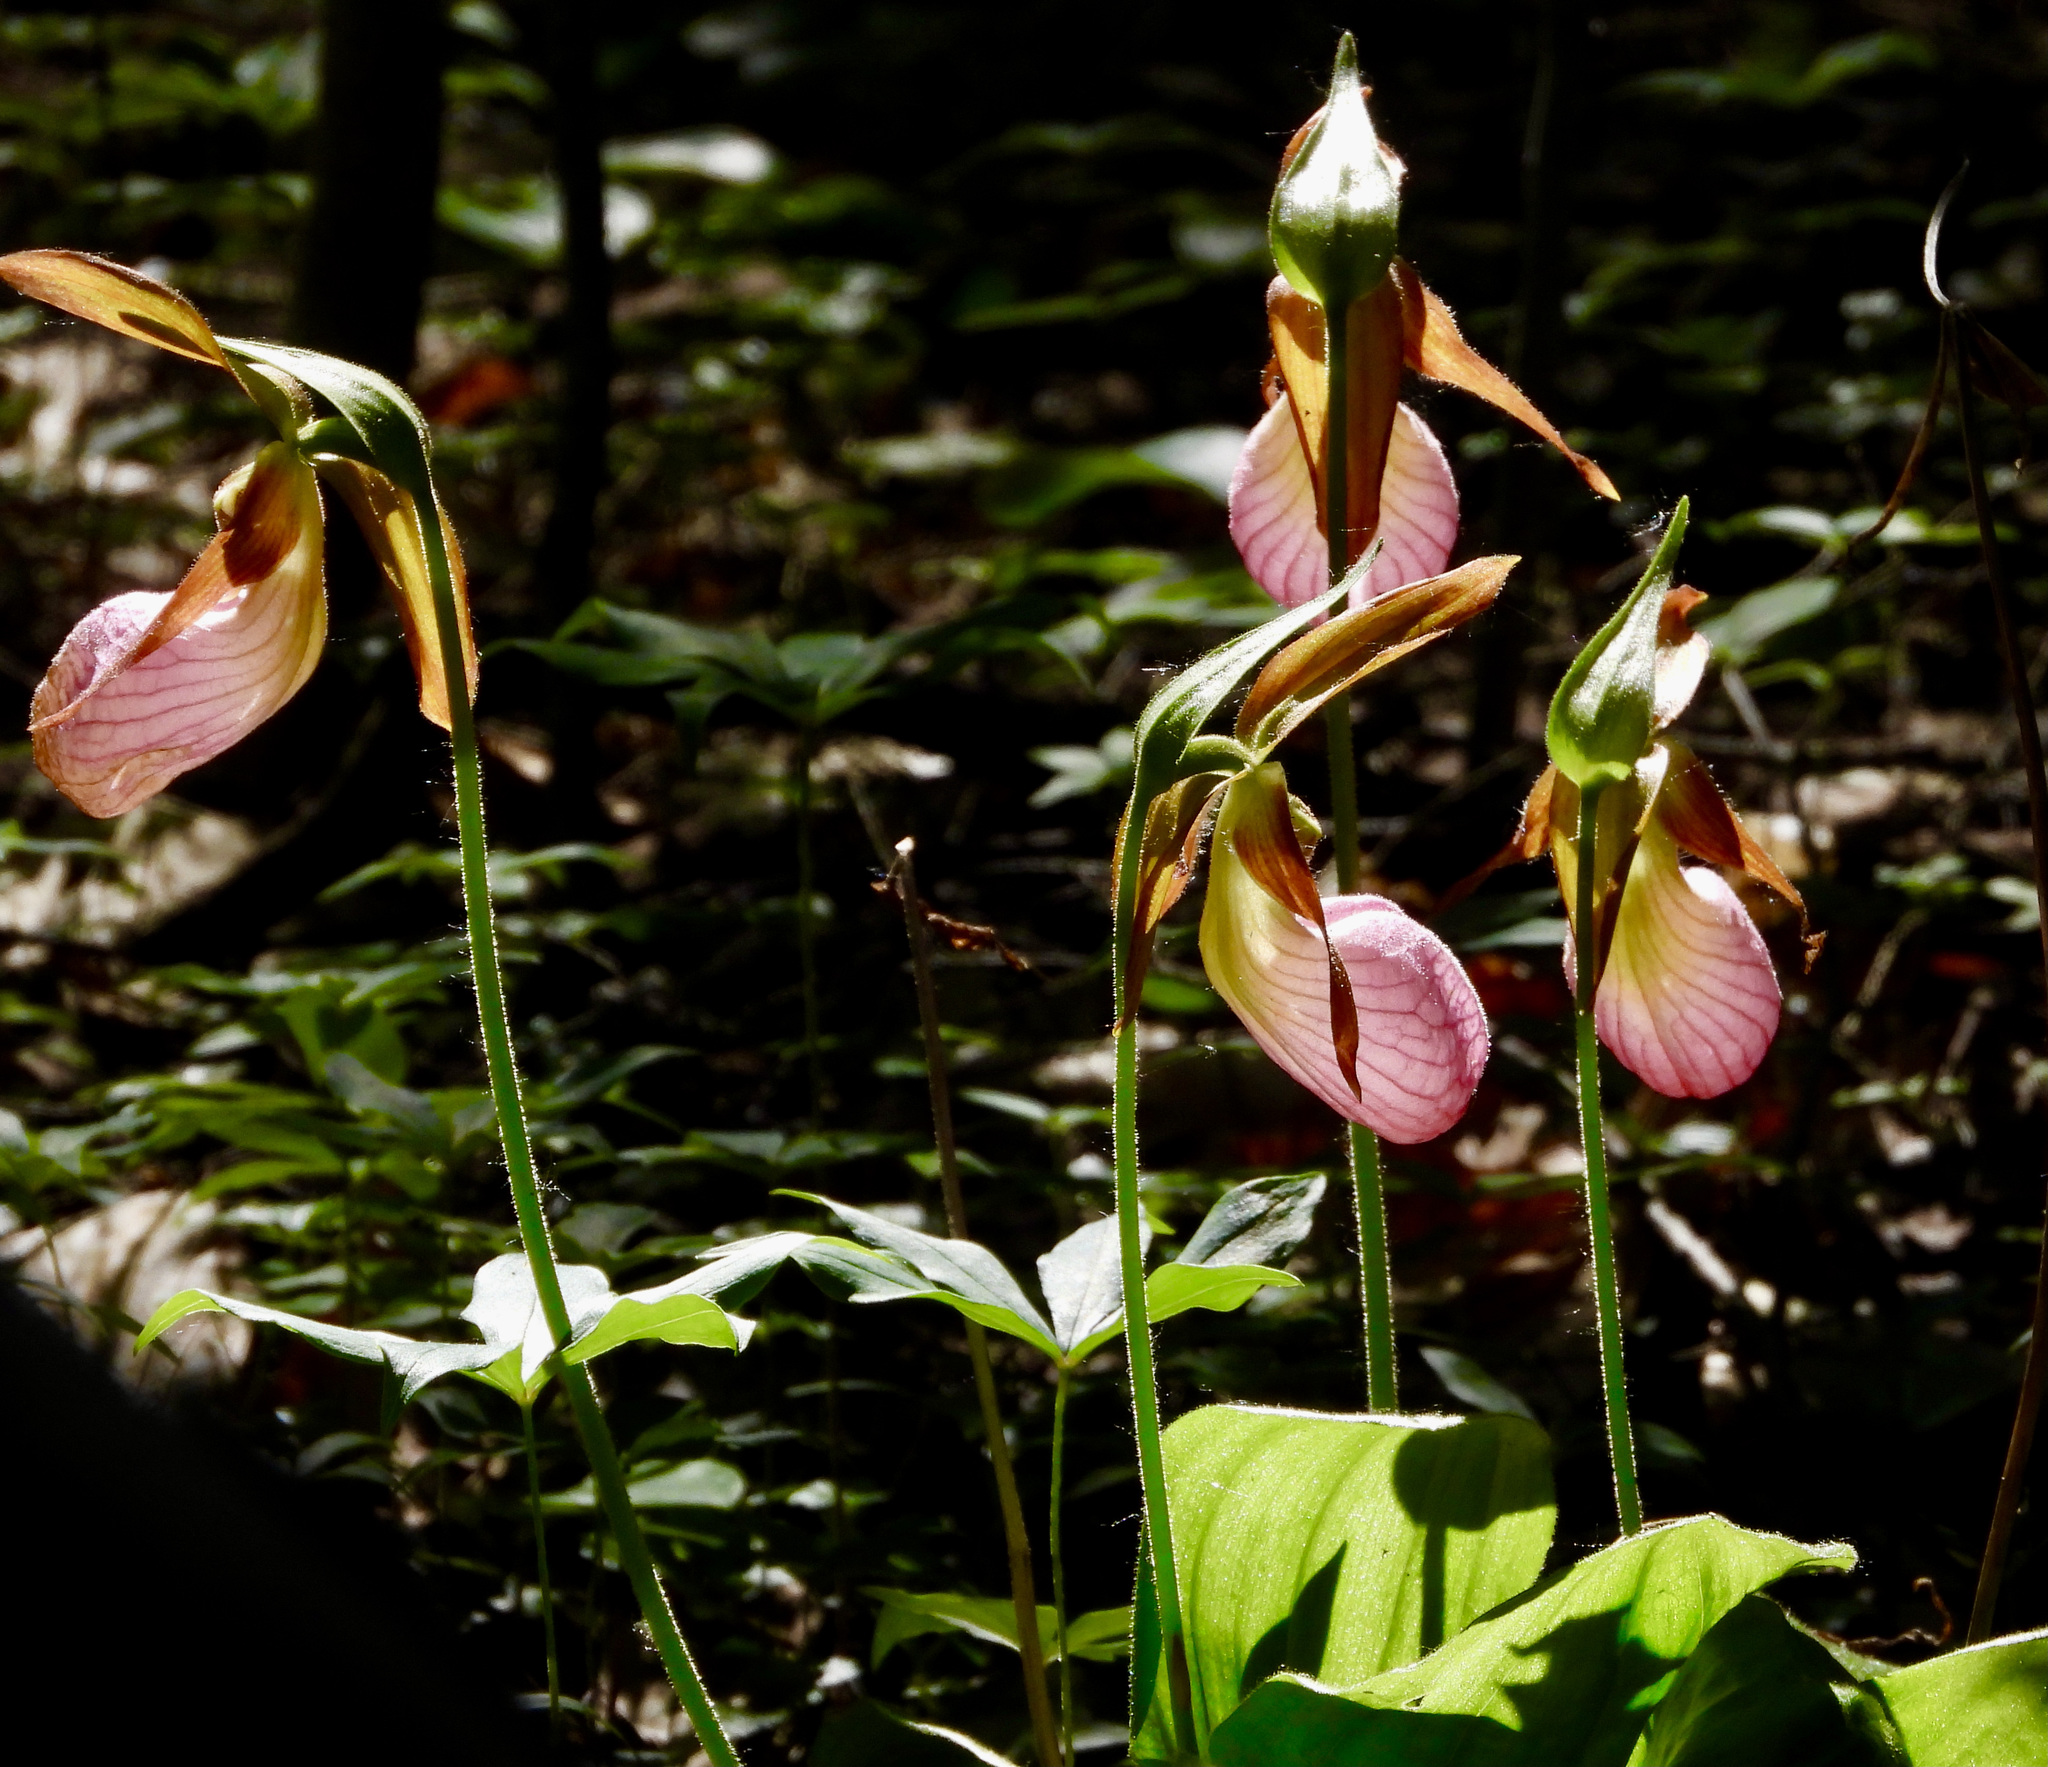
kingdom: Plantae
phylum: Tracheophyta
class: Liliopsida
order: Asparagales
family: Orchidaceae
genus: Cypripedium
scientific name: Cypripedium acaule
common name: Pink lady's-slipper
